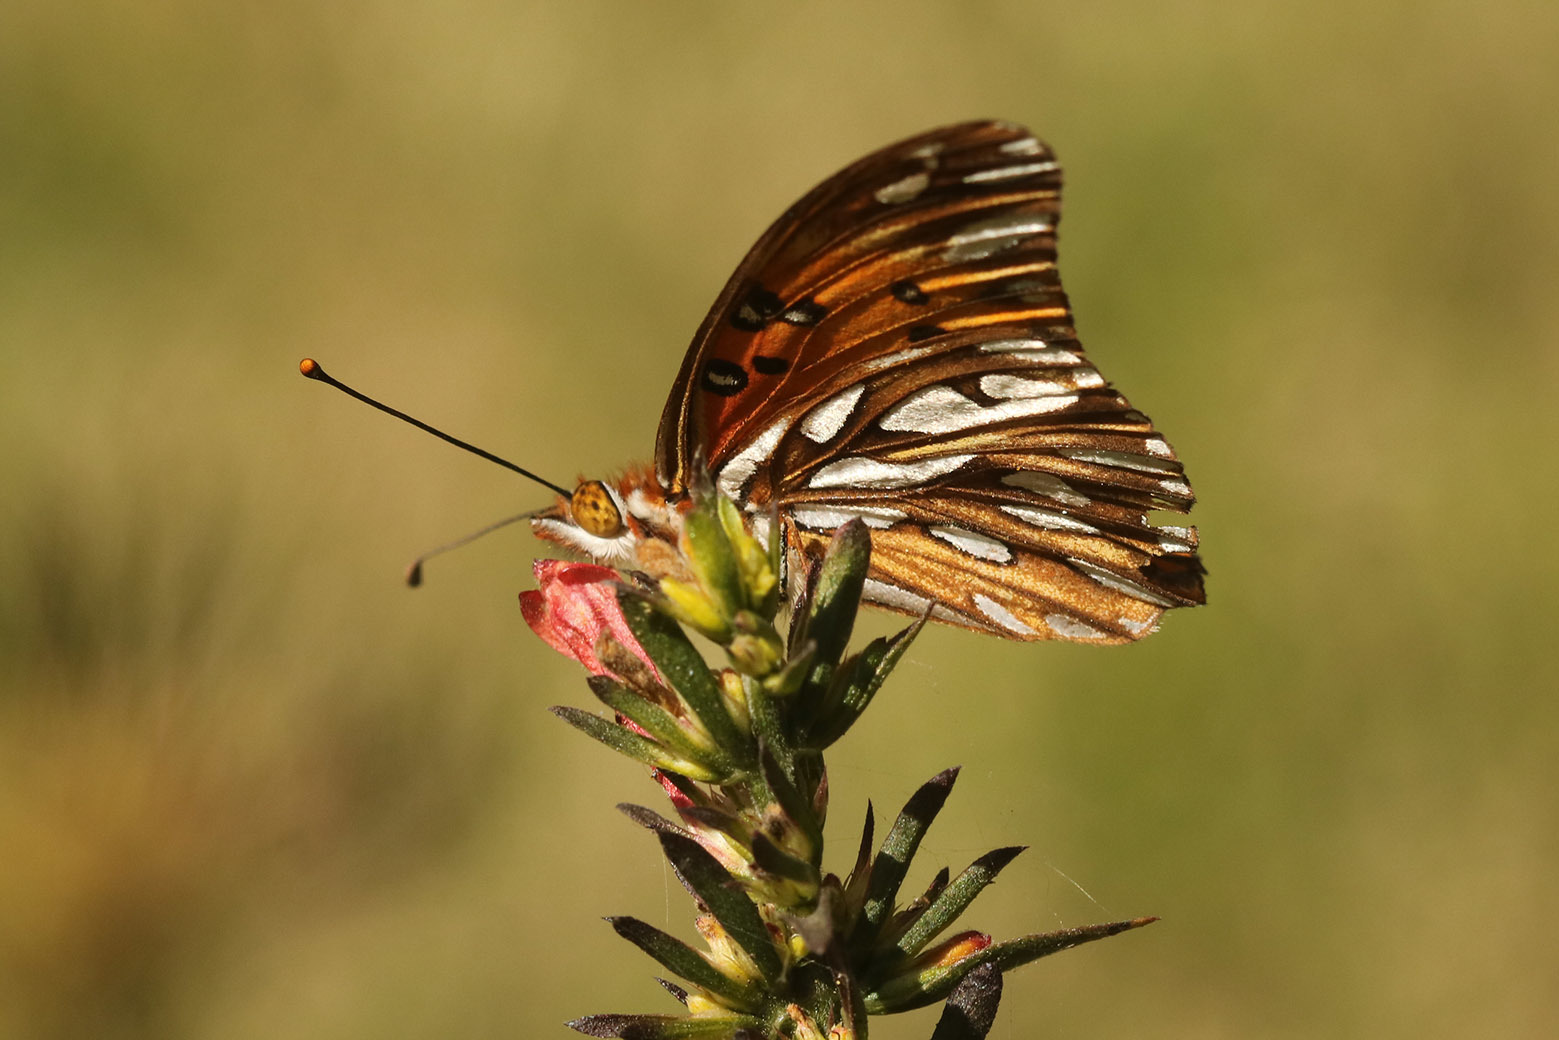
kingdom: Animalia
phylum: Arthropoda
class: Insecta
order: Lepidoptera
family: Nymphalidae
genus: Dione
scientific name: Dione vanillae
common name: Gulf fritillary
